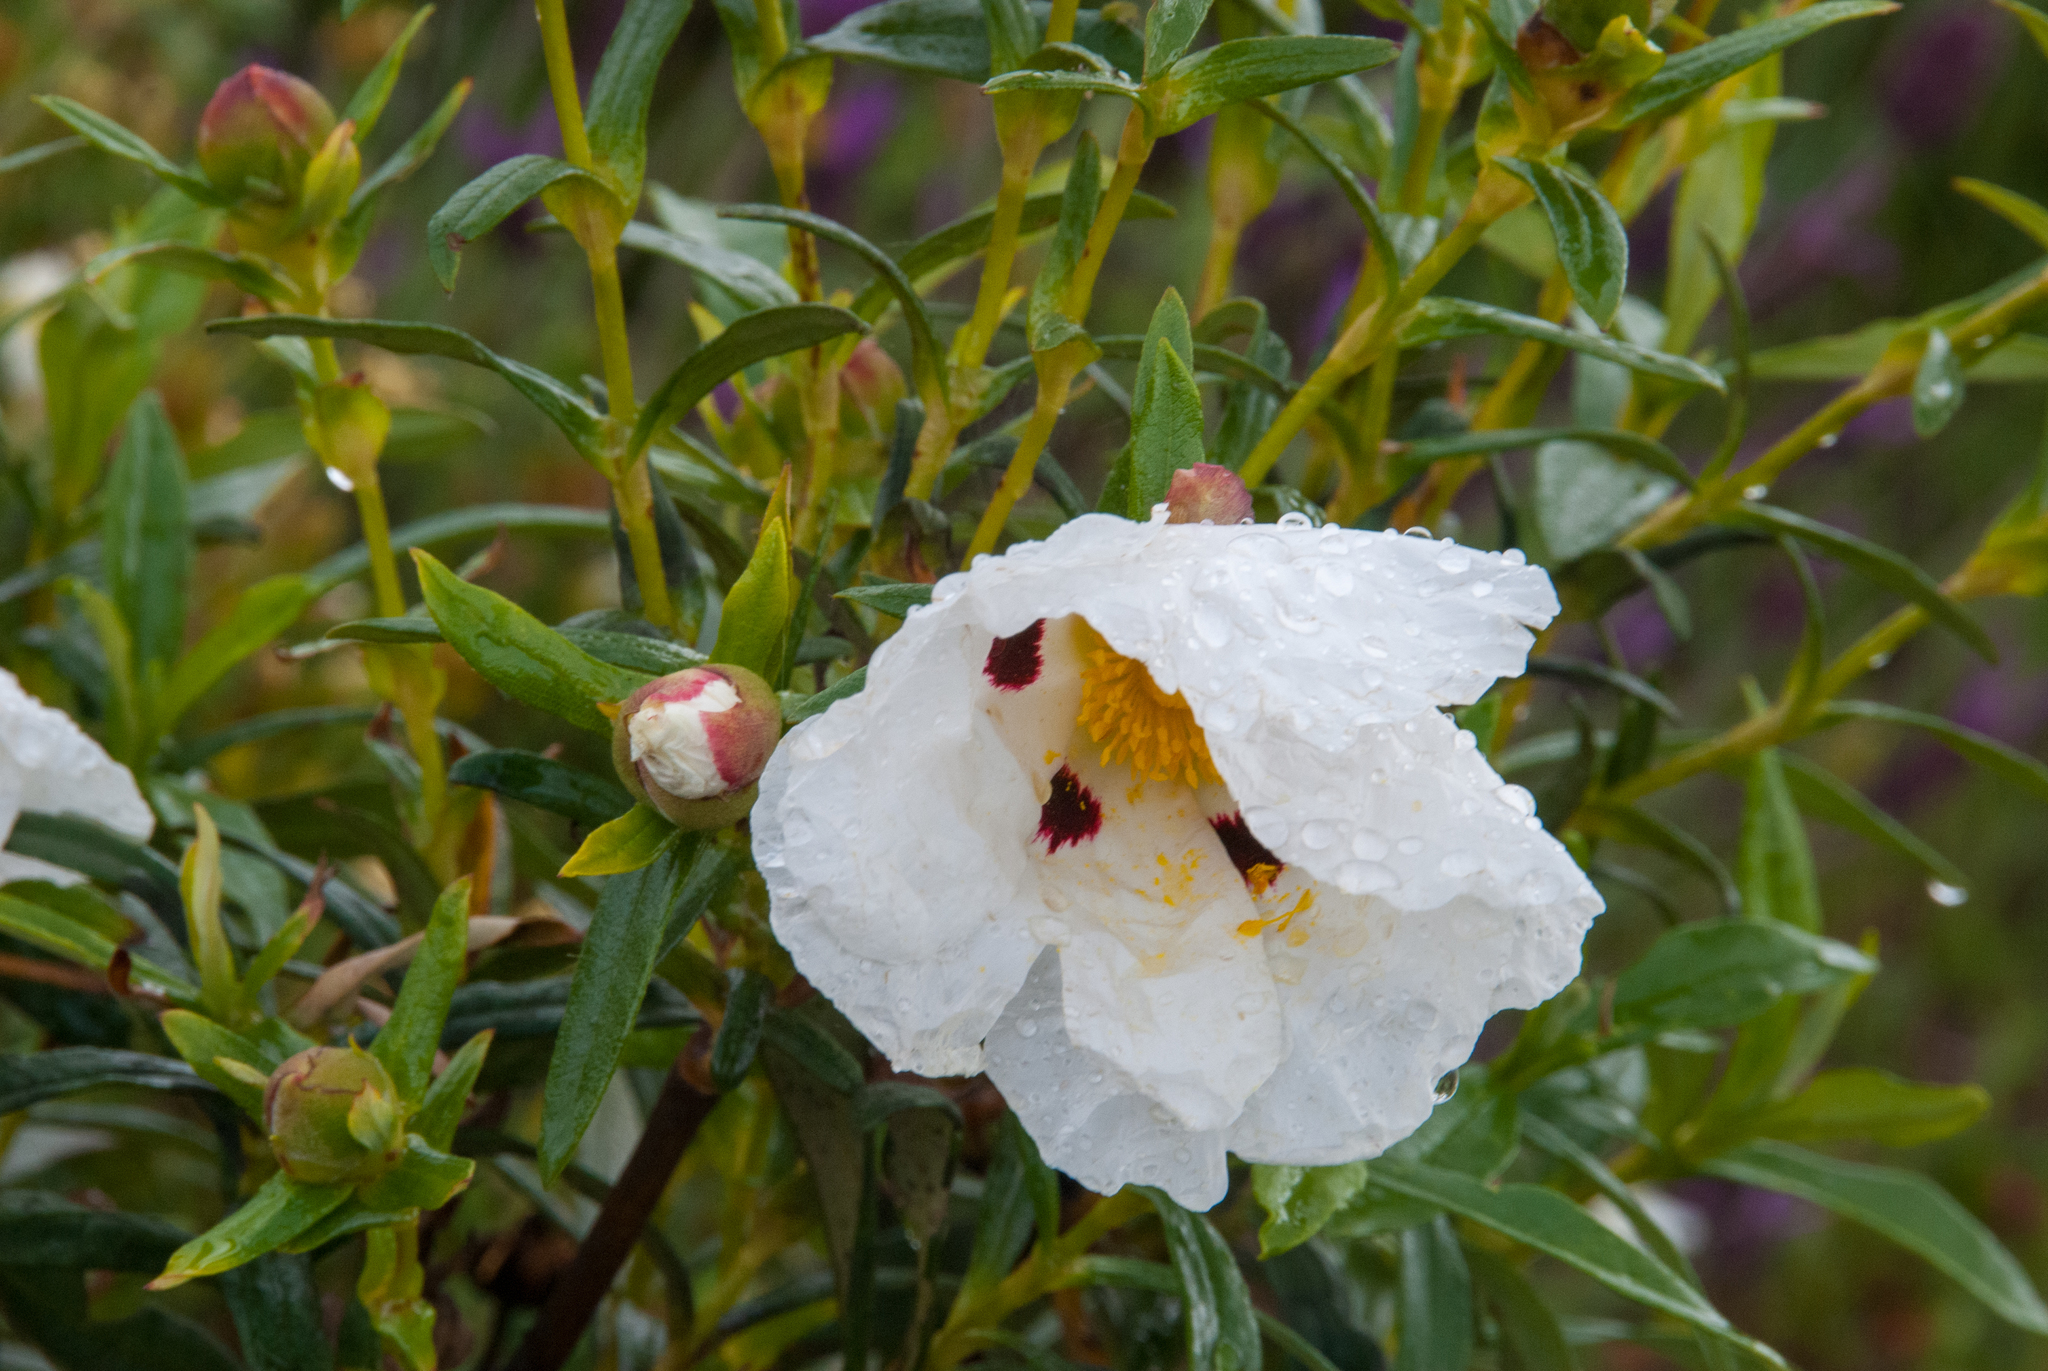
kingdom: Plantae
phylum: Tracheophyta
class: Magnoliopsida
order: Malvales
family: Cistaceae
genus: Cistus
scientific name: Cistus ladanifer
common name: Common gum cistus
